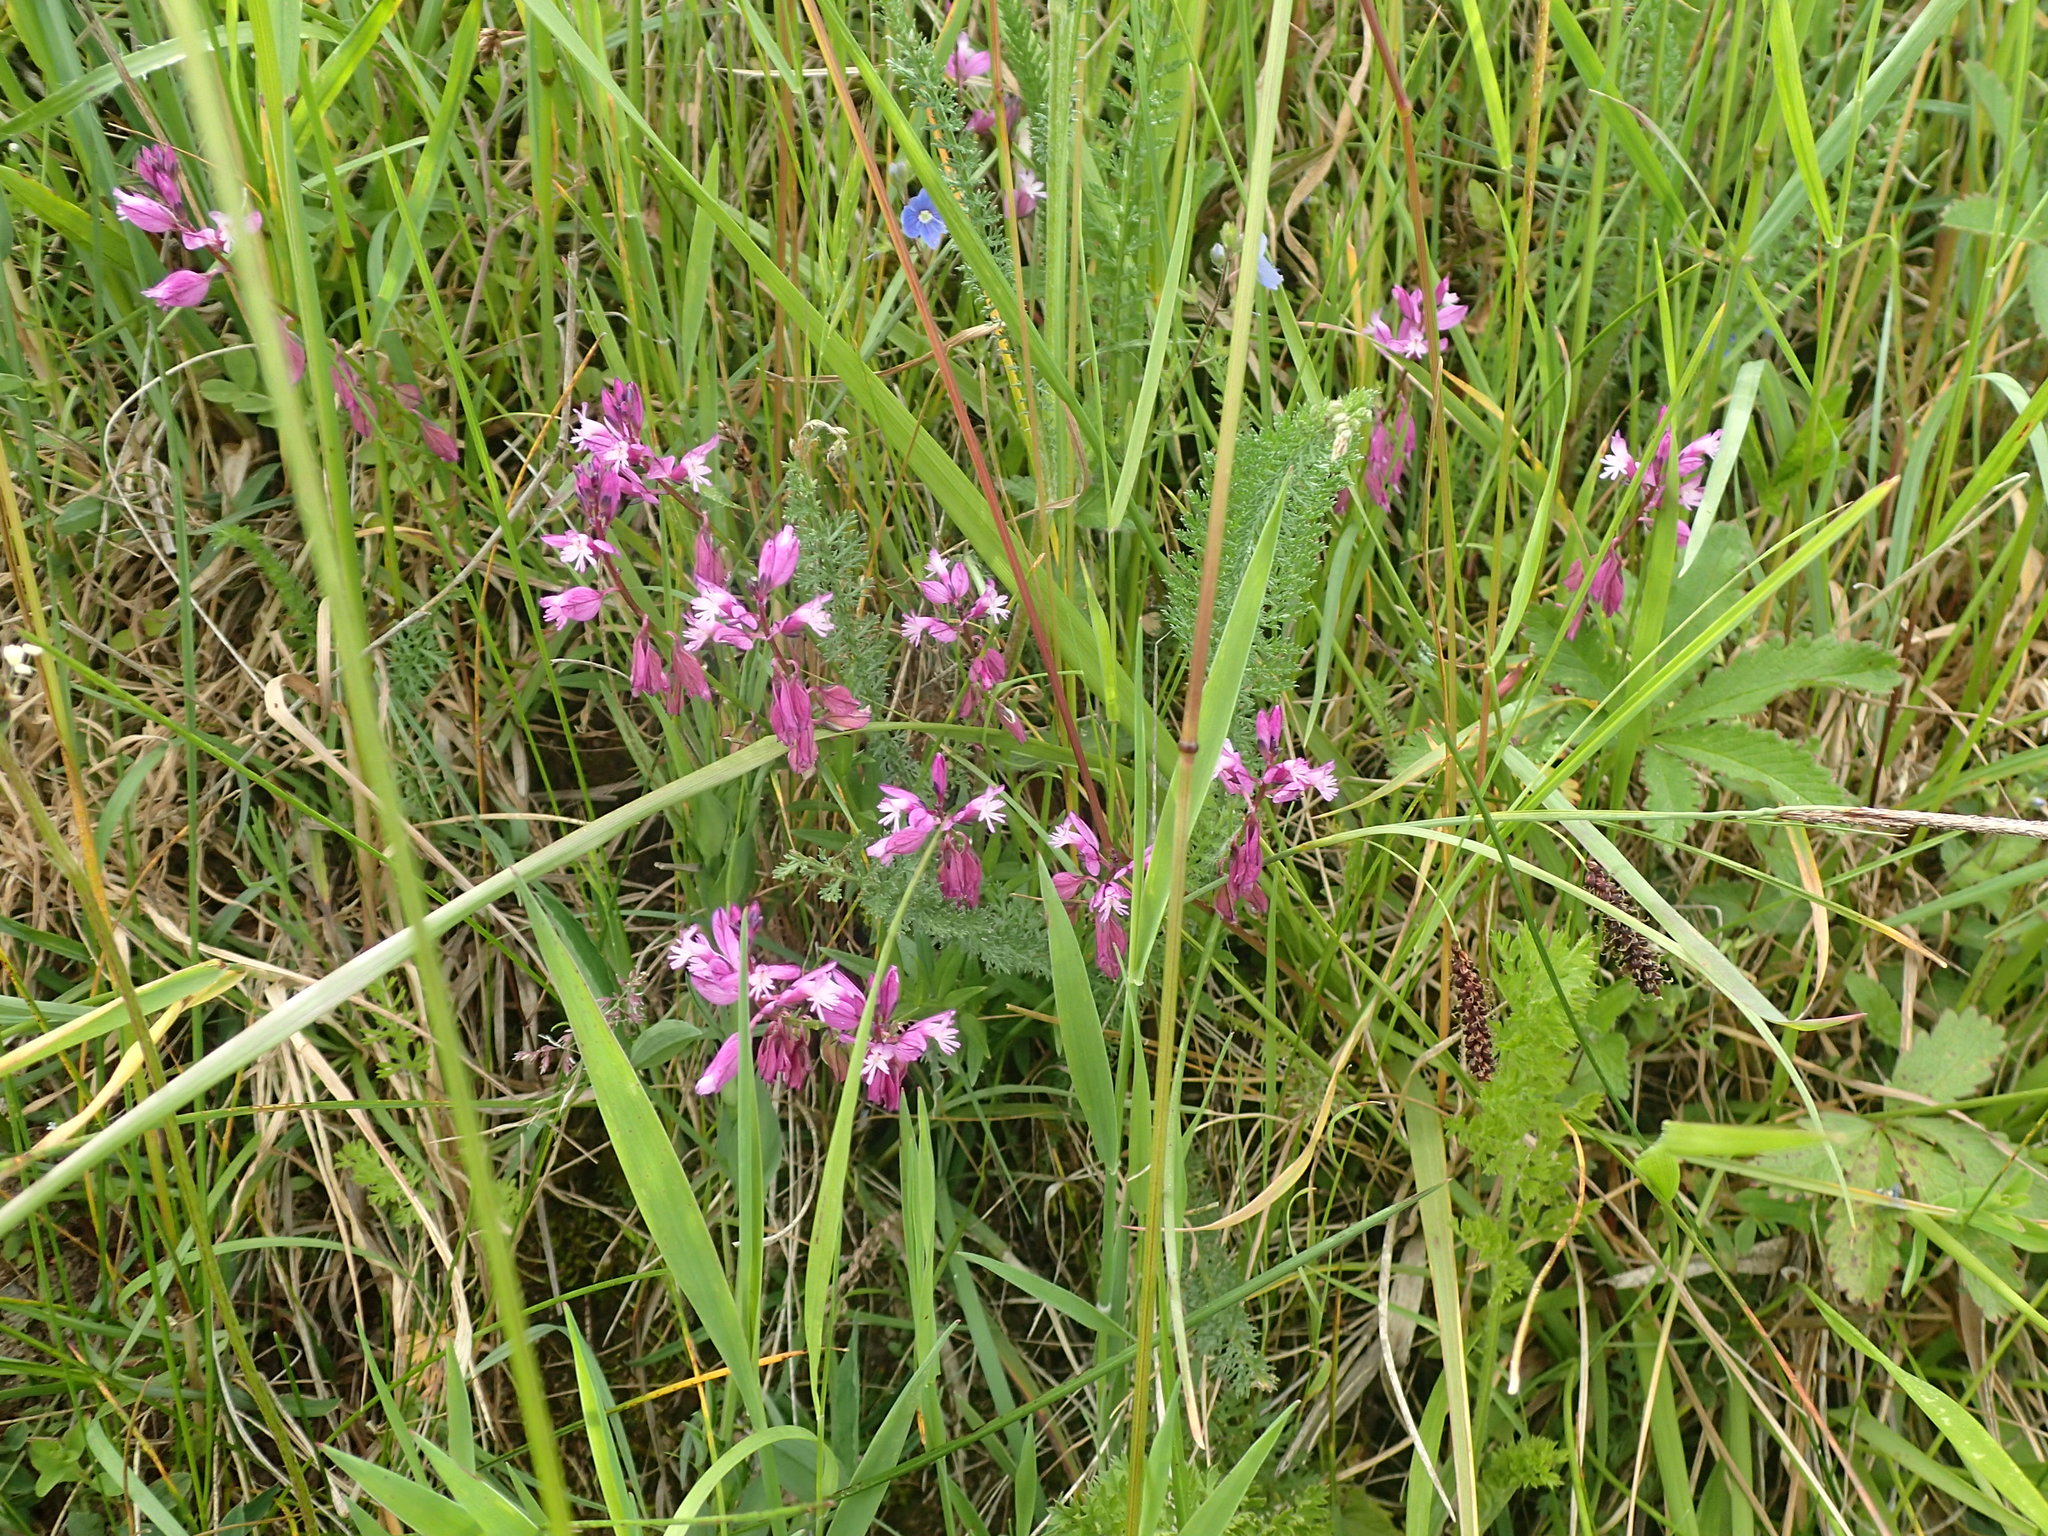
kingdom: Plantae
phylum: Tracheophyta
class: Magnoliopsida
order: Fabales
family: Polygalaceae
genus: Polygala
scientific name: Polygala vulgaris
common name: Common milkwort
